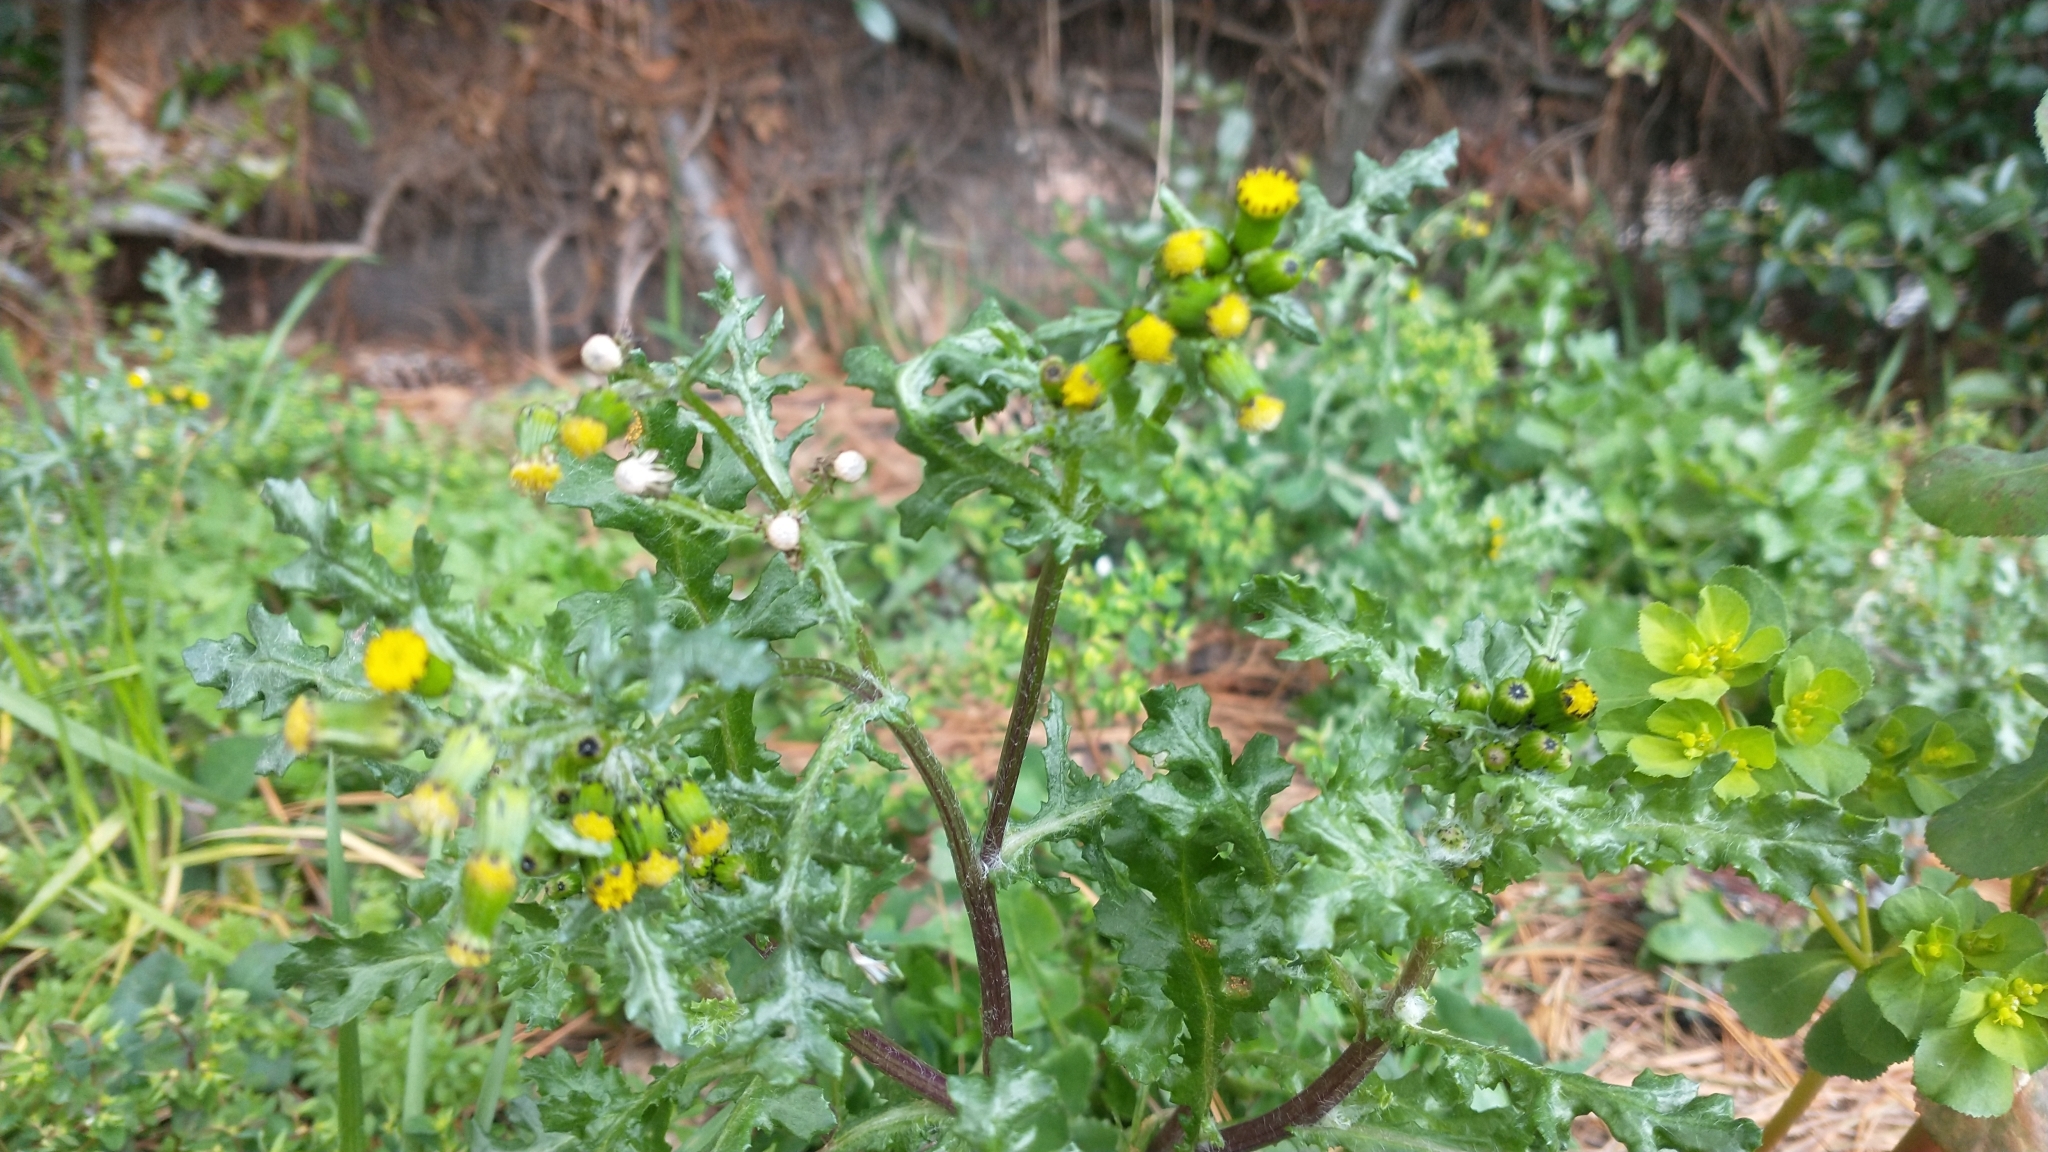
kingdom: Plantae
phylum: Tracheophyta
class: Magnoliopsida
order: Asterales
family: Asteraceae
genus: Senecio
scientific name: Senecio vulgaris
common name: Old-man-in-the-spring
